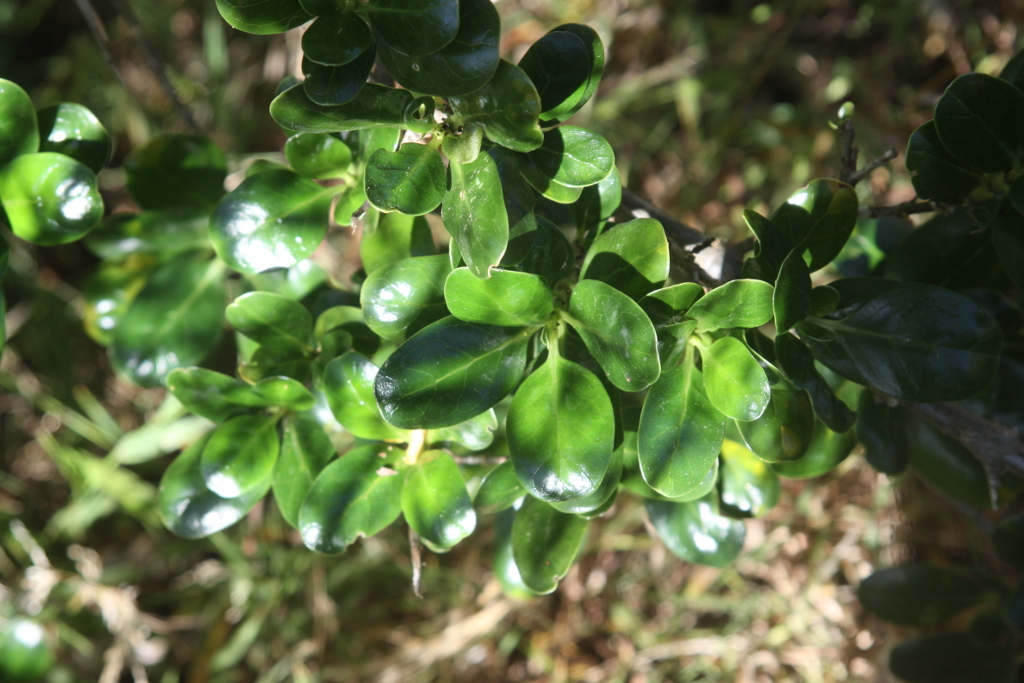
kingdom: Plantae
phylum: Tracheophyta
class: Magnoliopsida
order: Gentianales
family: Rubiaceae
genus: Coprosma
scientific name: Coprosma repens
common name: Tree bedstraw
